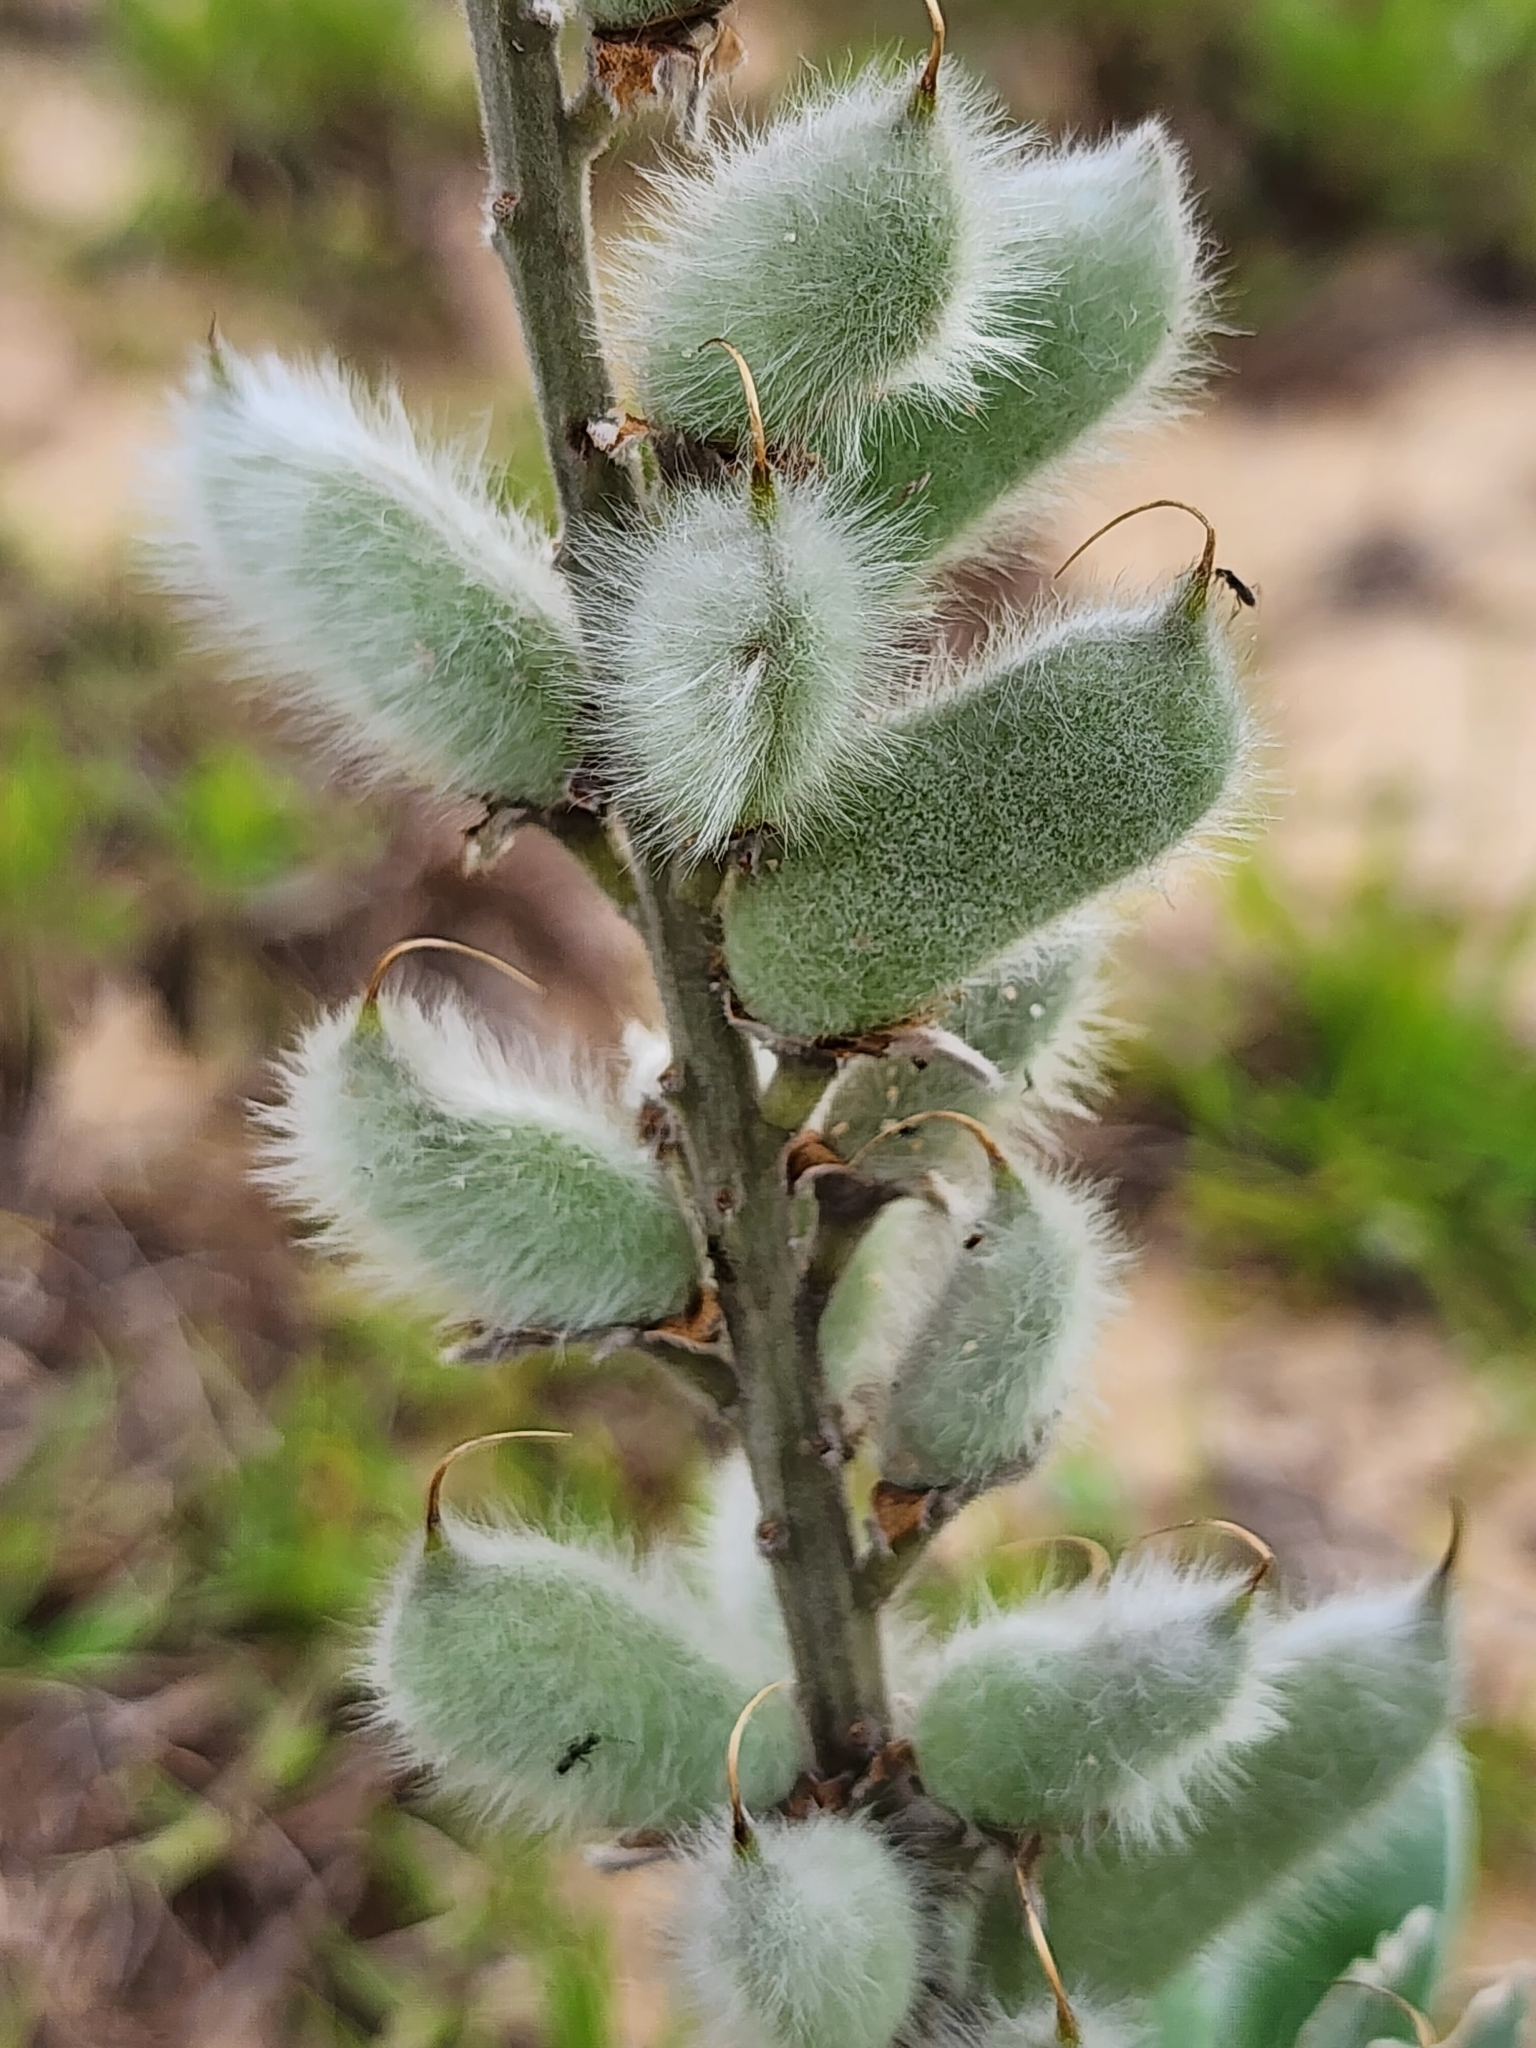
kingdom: Plantae
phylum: Tracheophyta
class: Magnoliopsida
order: Fabales
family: Fabaceae
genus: Lupinus
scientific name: Lupinus westianus
